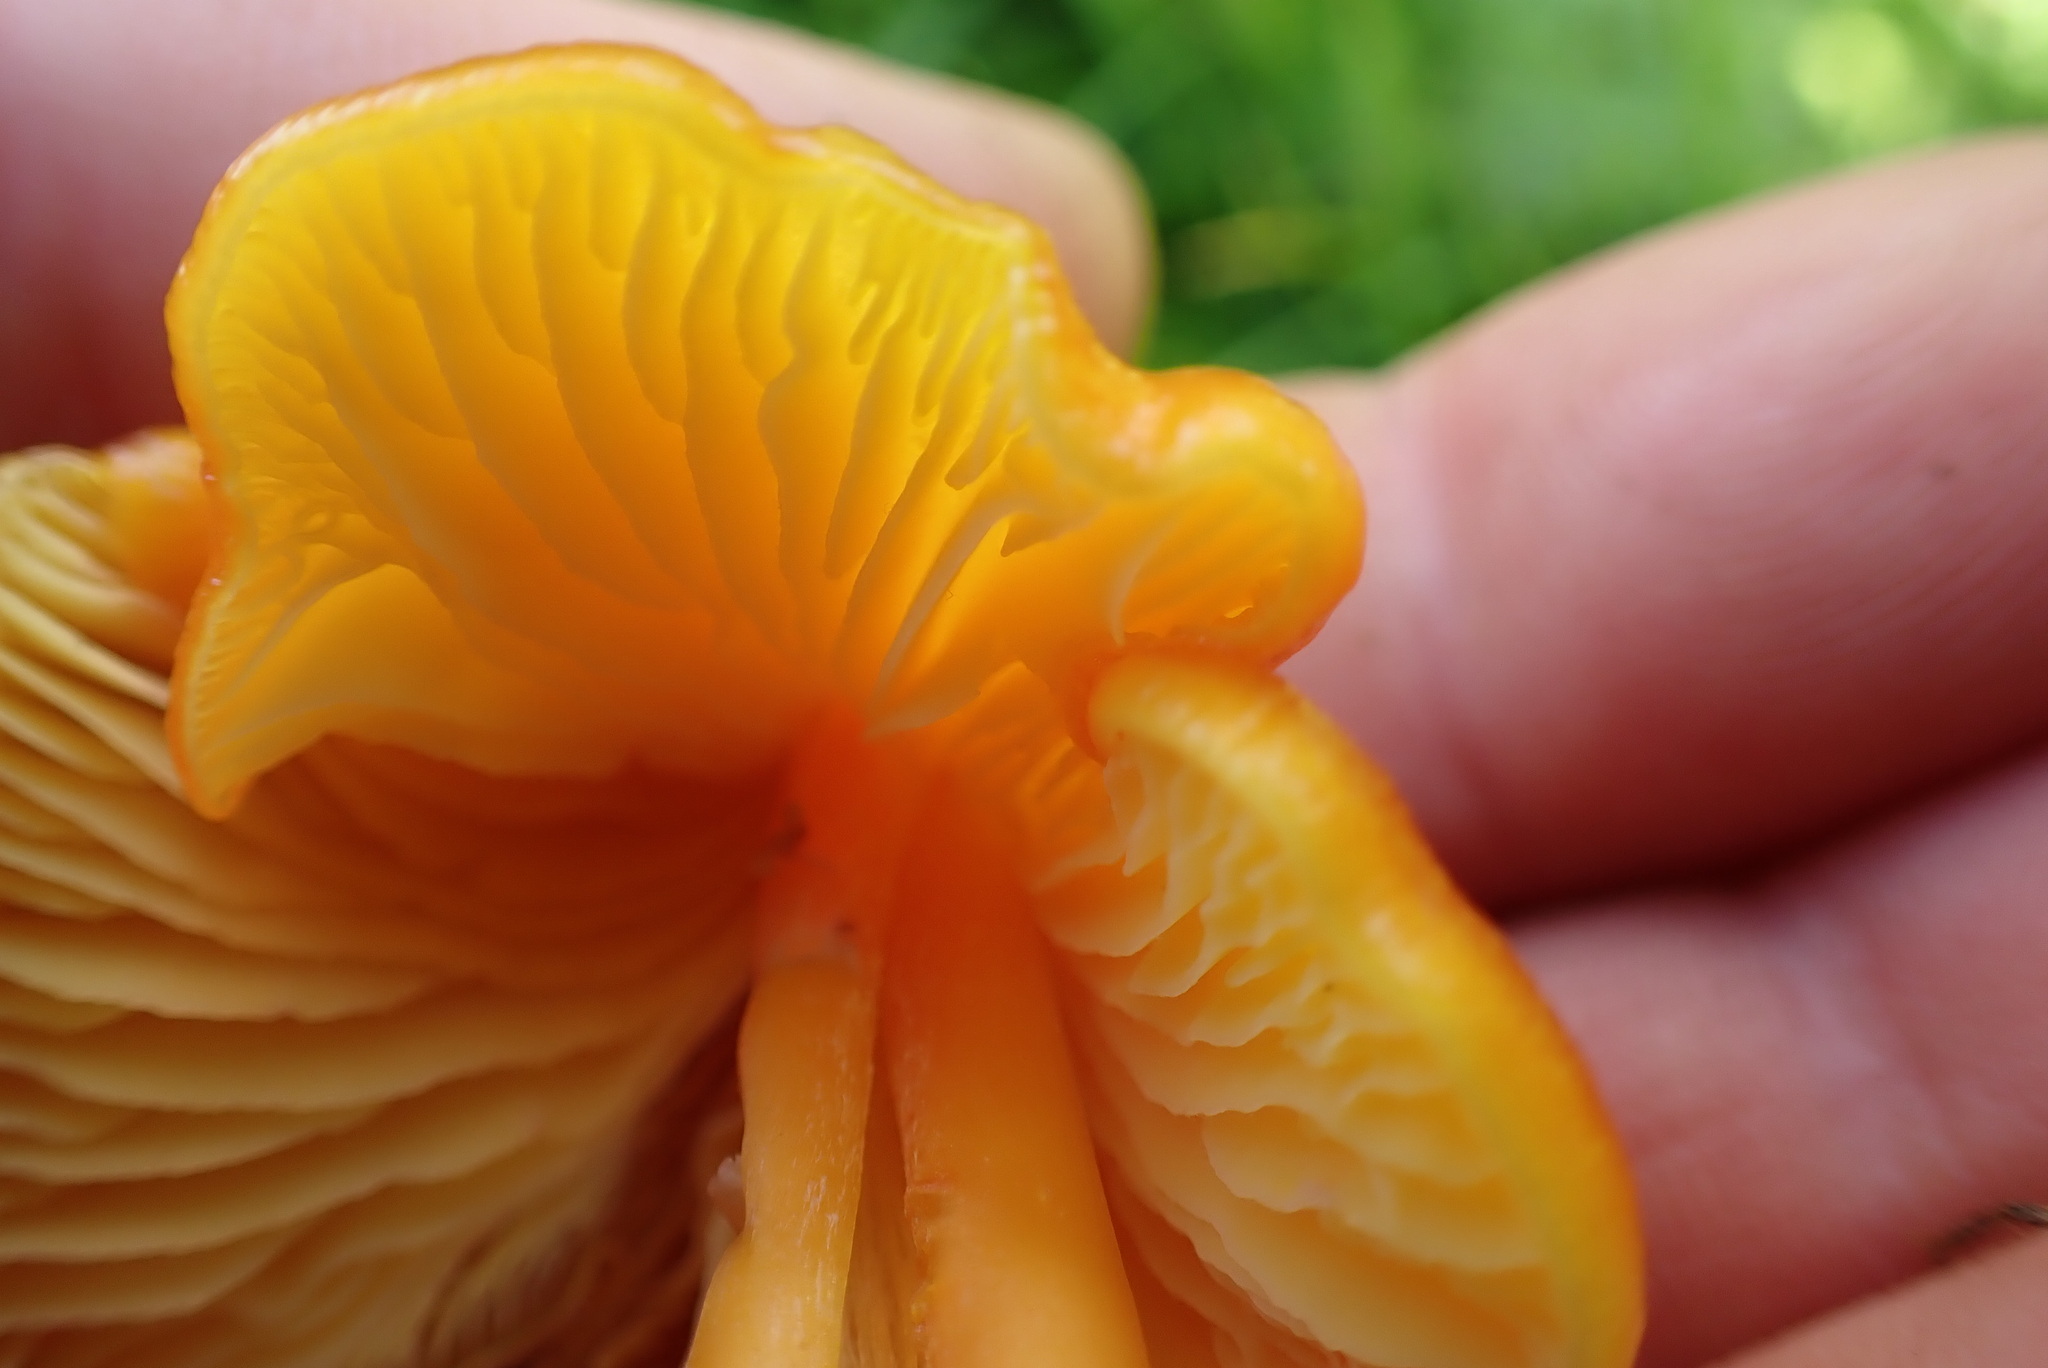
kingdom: Fungi
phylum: Basidiomycota
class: Agaricomycetes
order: Agaricales
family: Hygrophoraceae
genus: Hygrocybe
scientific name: Hygrocybe chlorophana
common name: Golden waxcap
